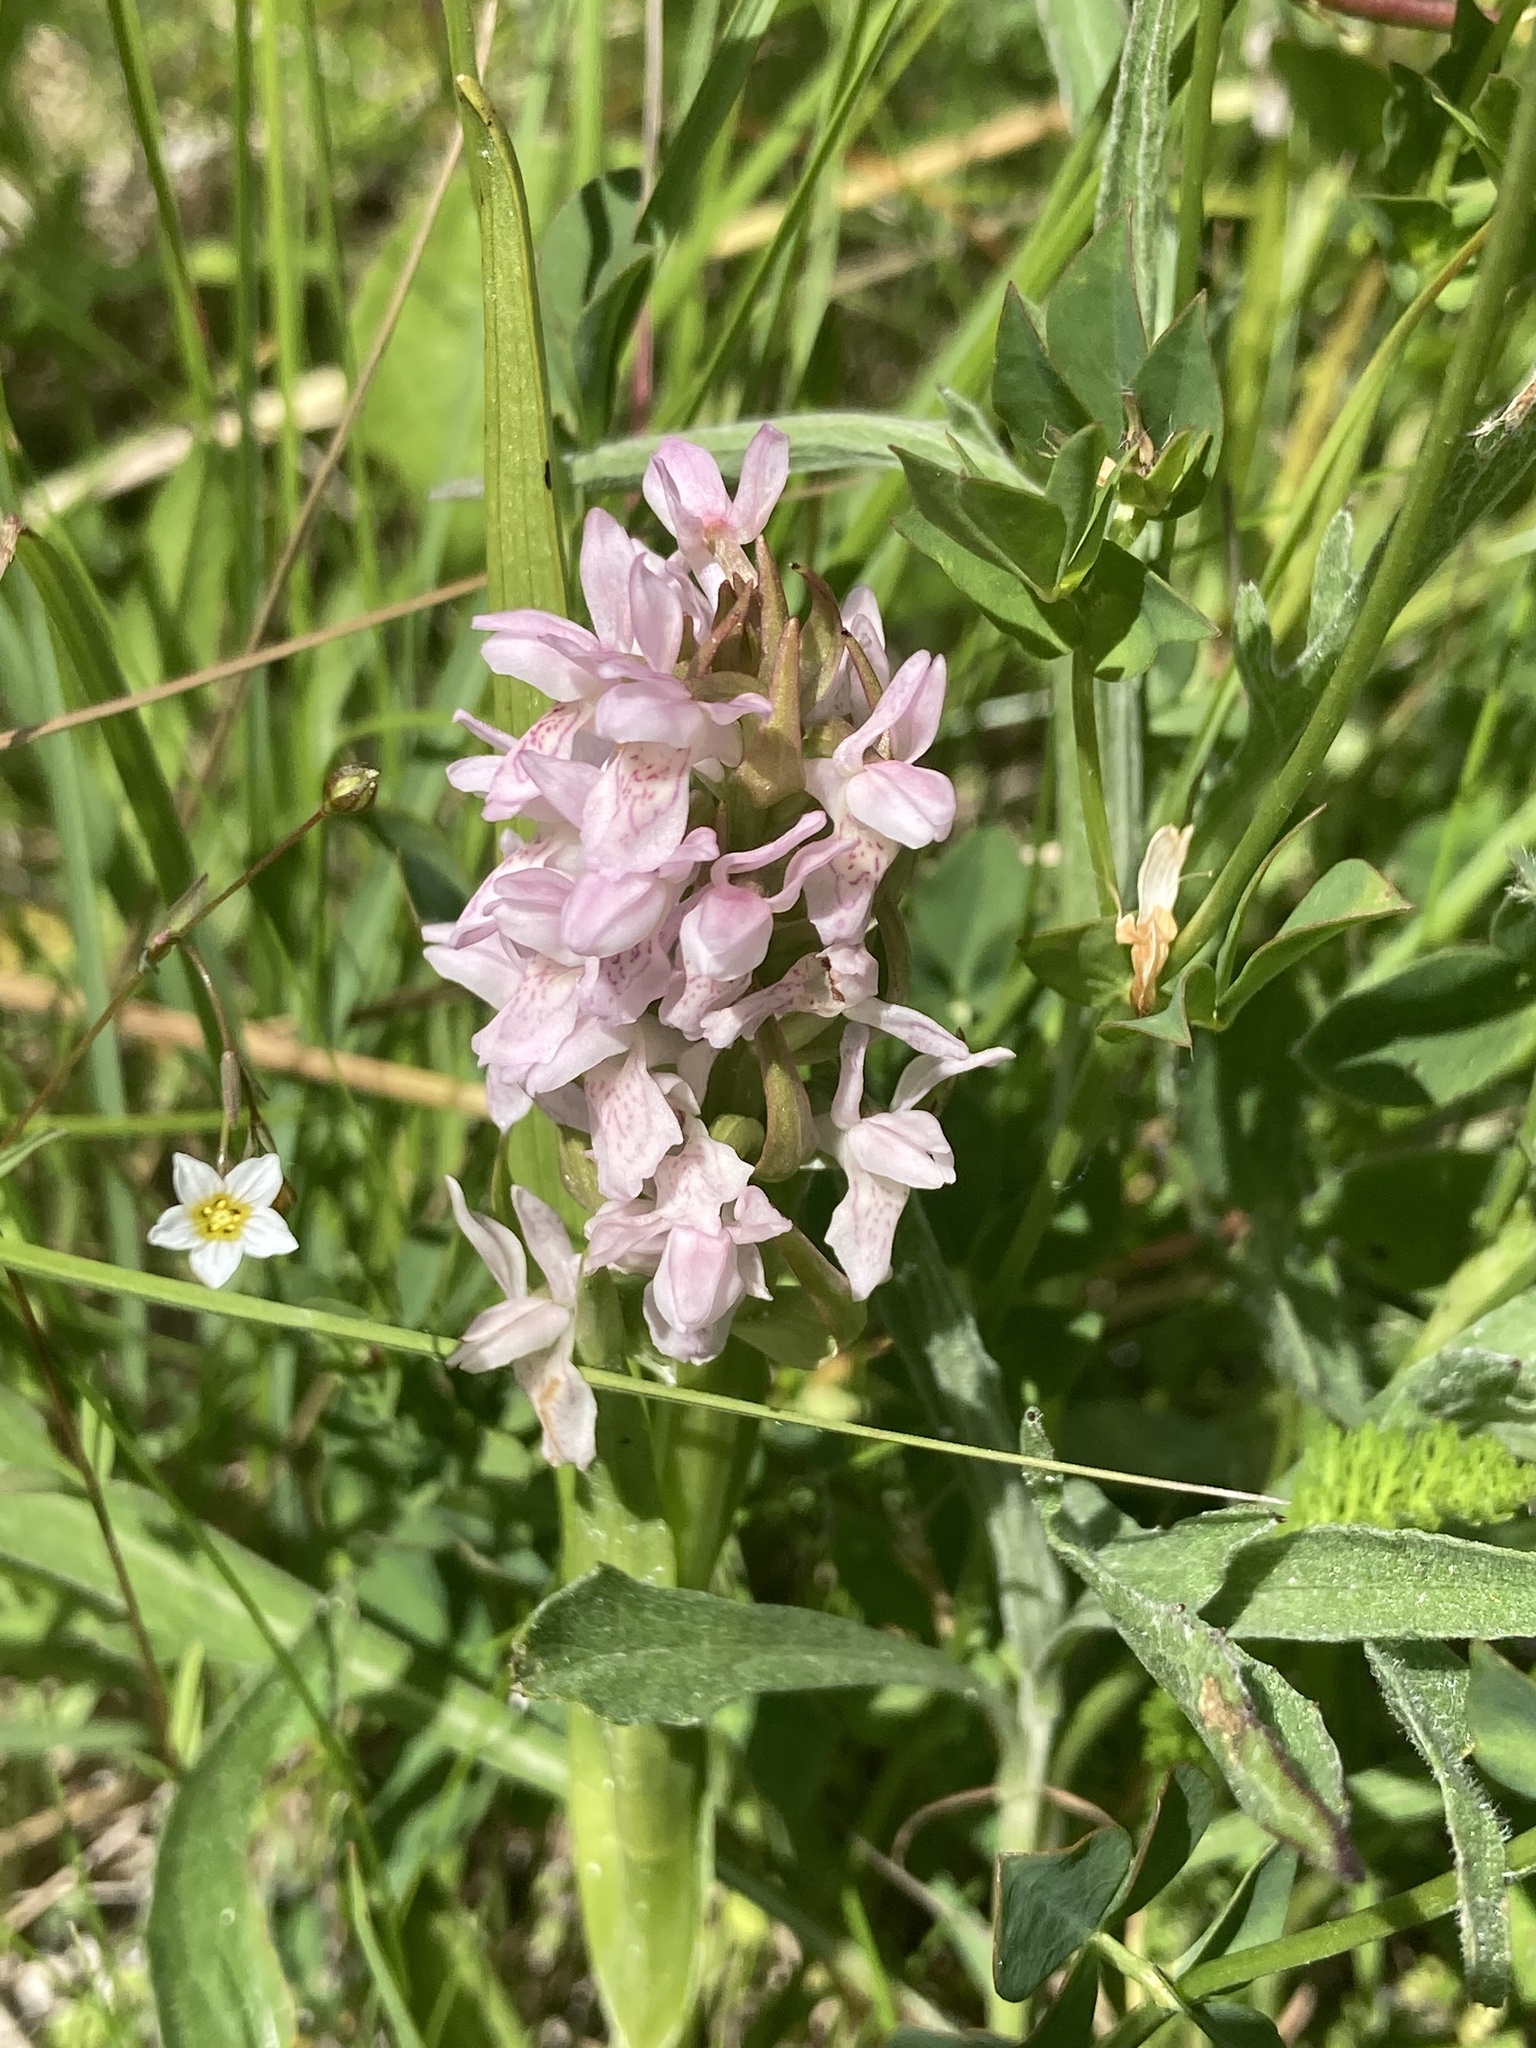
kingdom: Plantae
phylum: Tracheophyta
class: Liliopsida
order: Asparagales
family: Orchidaceae
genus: Dactylorhiza
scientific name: Dactylorhiza incarnata
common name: Early marsh-orchid
